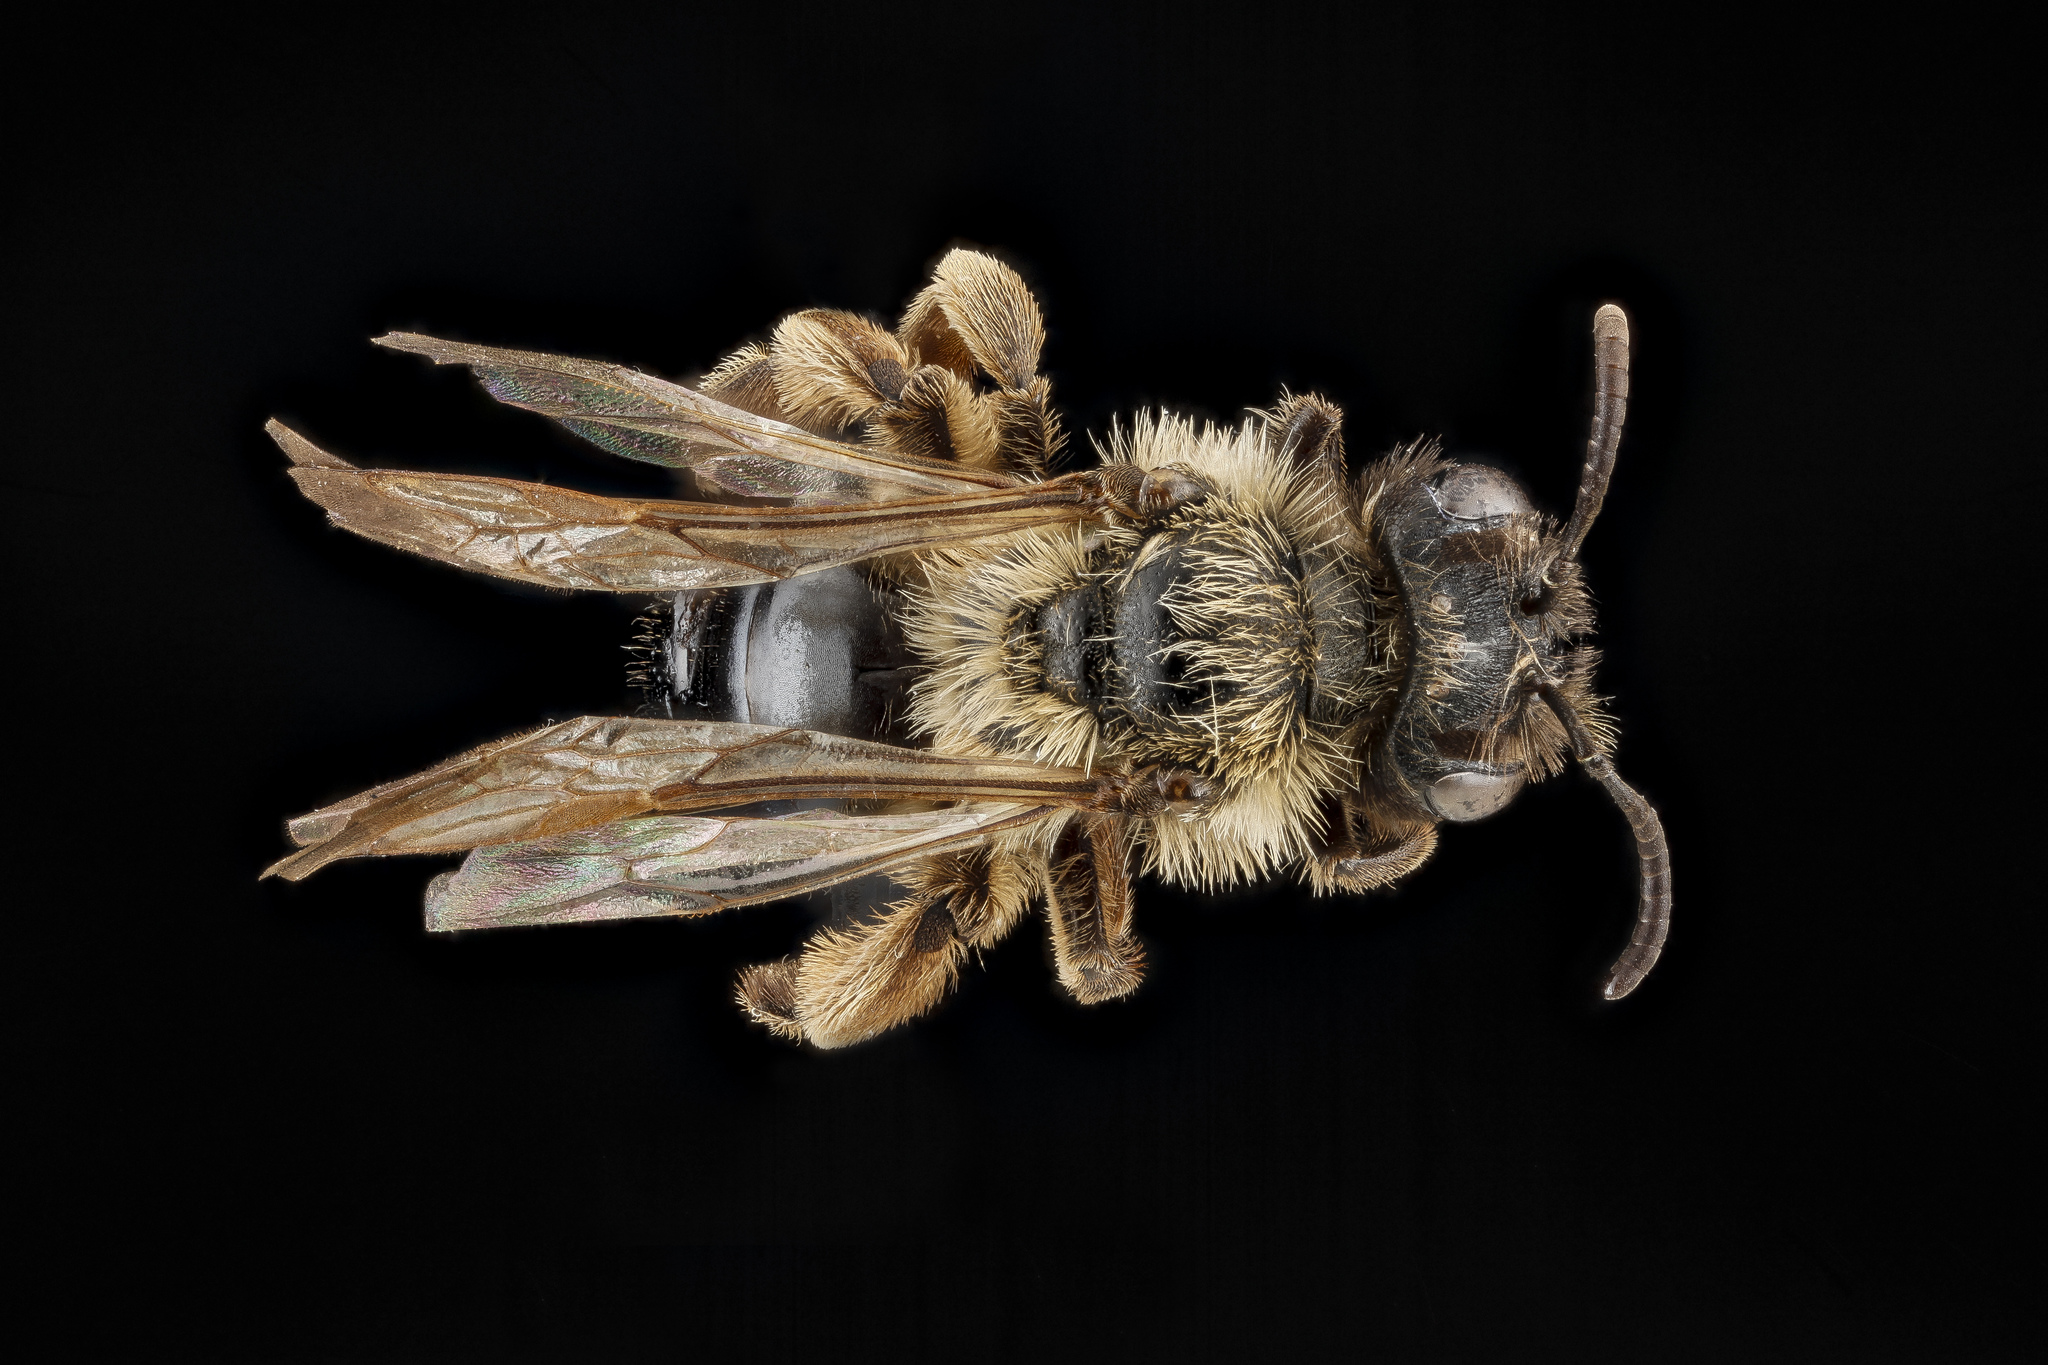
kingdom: Animalia
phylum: Arthropoda
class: Insecta
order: Hymenoptera
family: Andrenidae
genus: Andrena
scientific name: Andrena merriami
